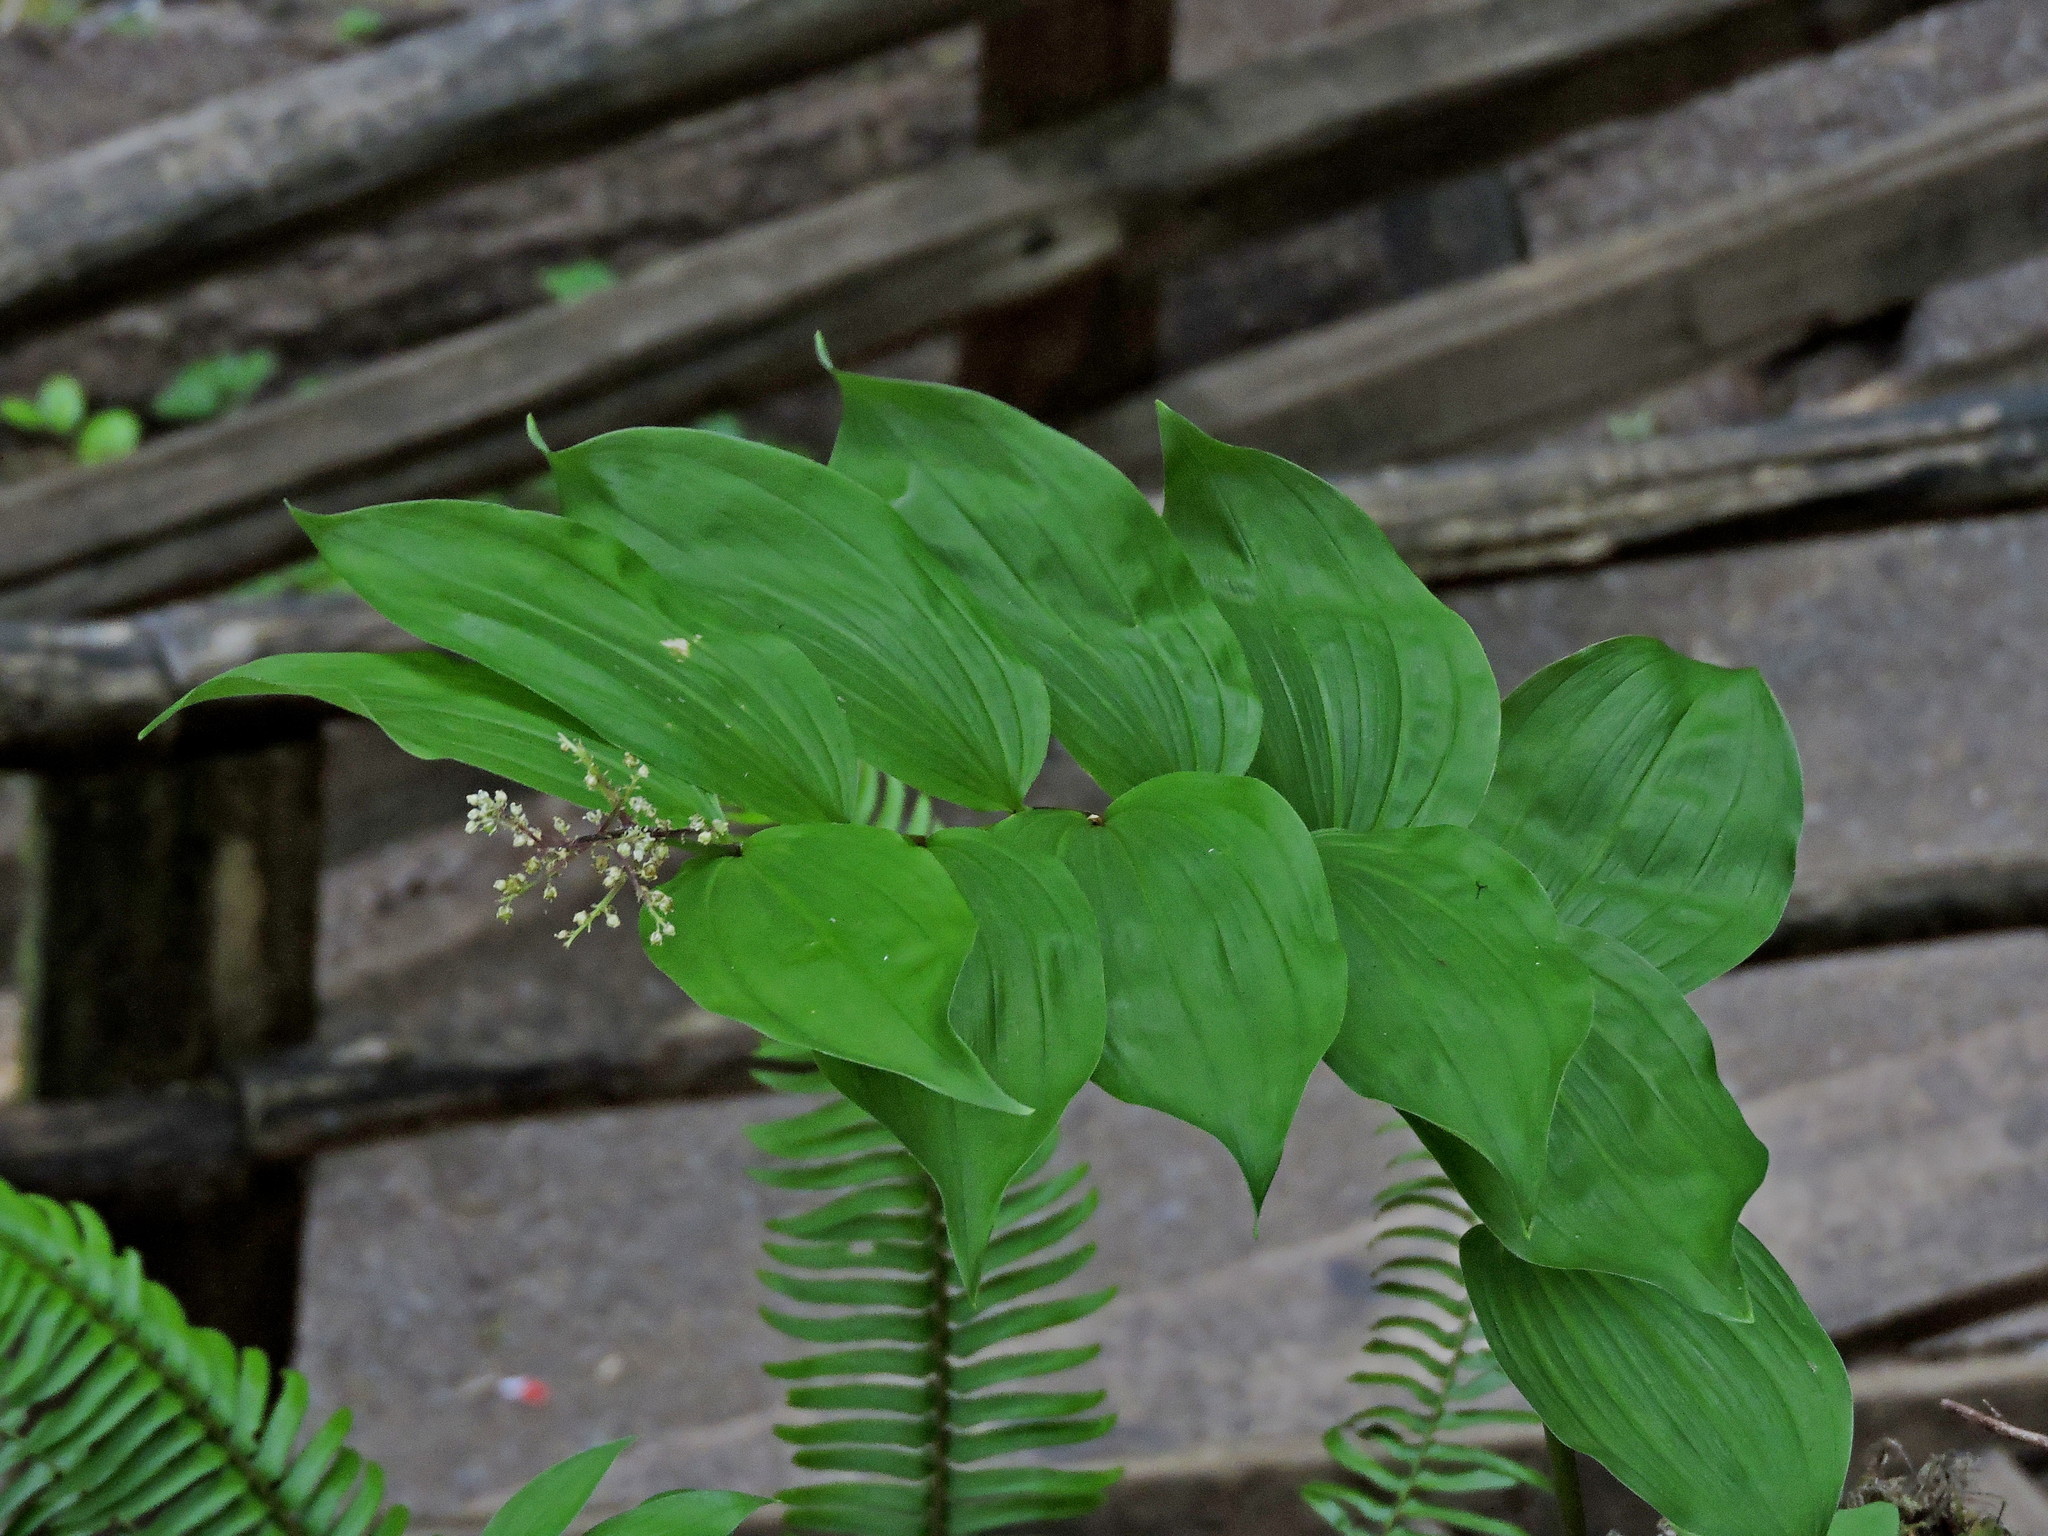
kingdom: Plantae
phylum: Tracheophyta
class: Liliopsida
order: Asparagales
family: Asparagaceae
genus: Maianthemum
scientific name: Maianthemum racemosum
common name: False spikenard
